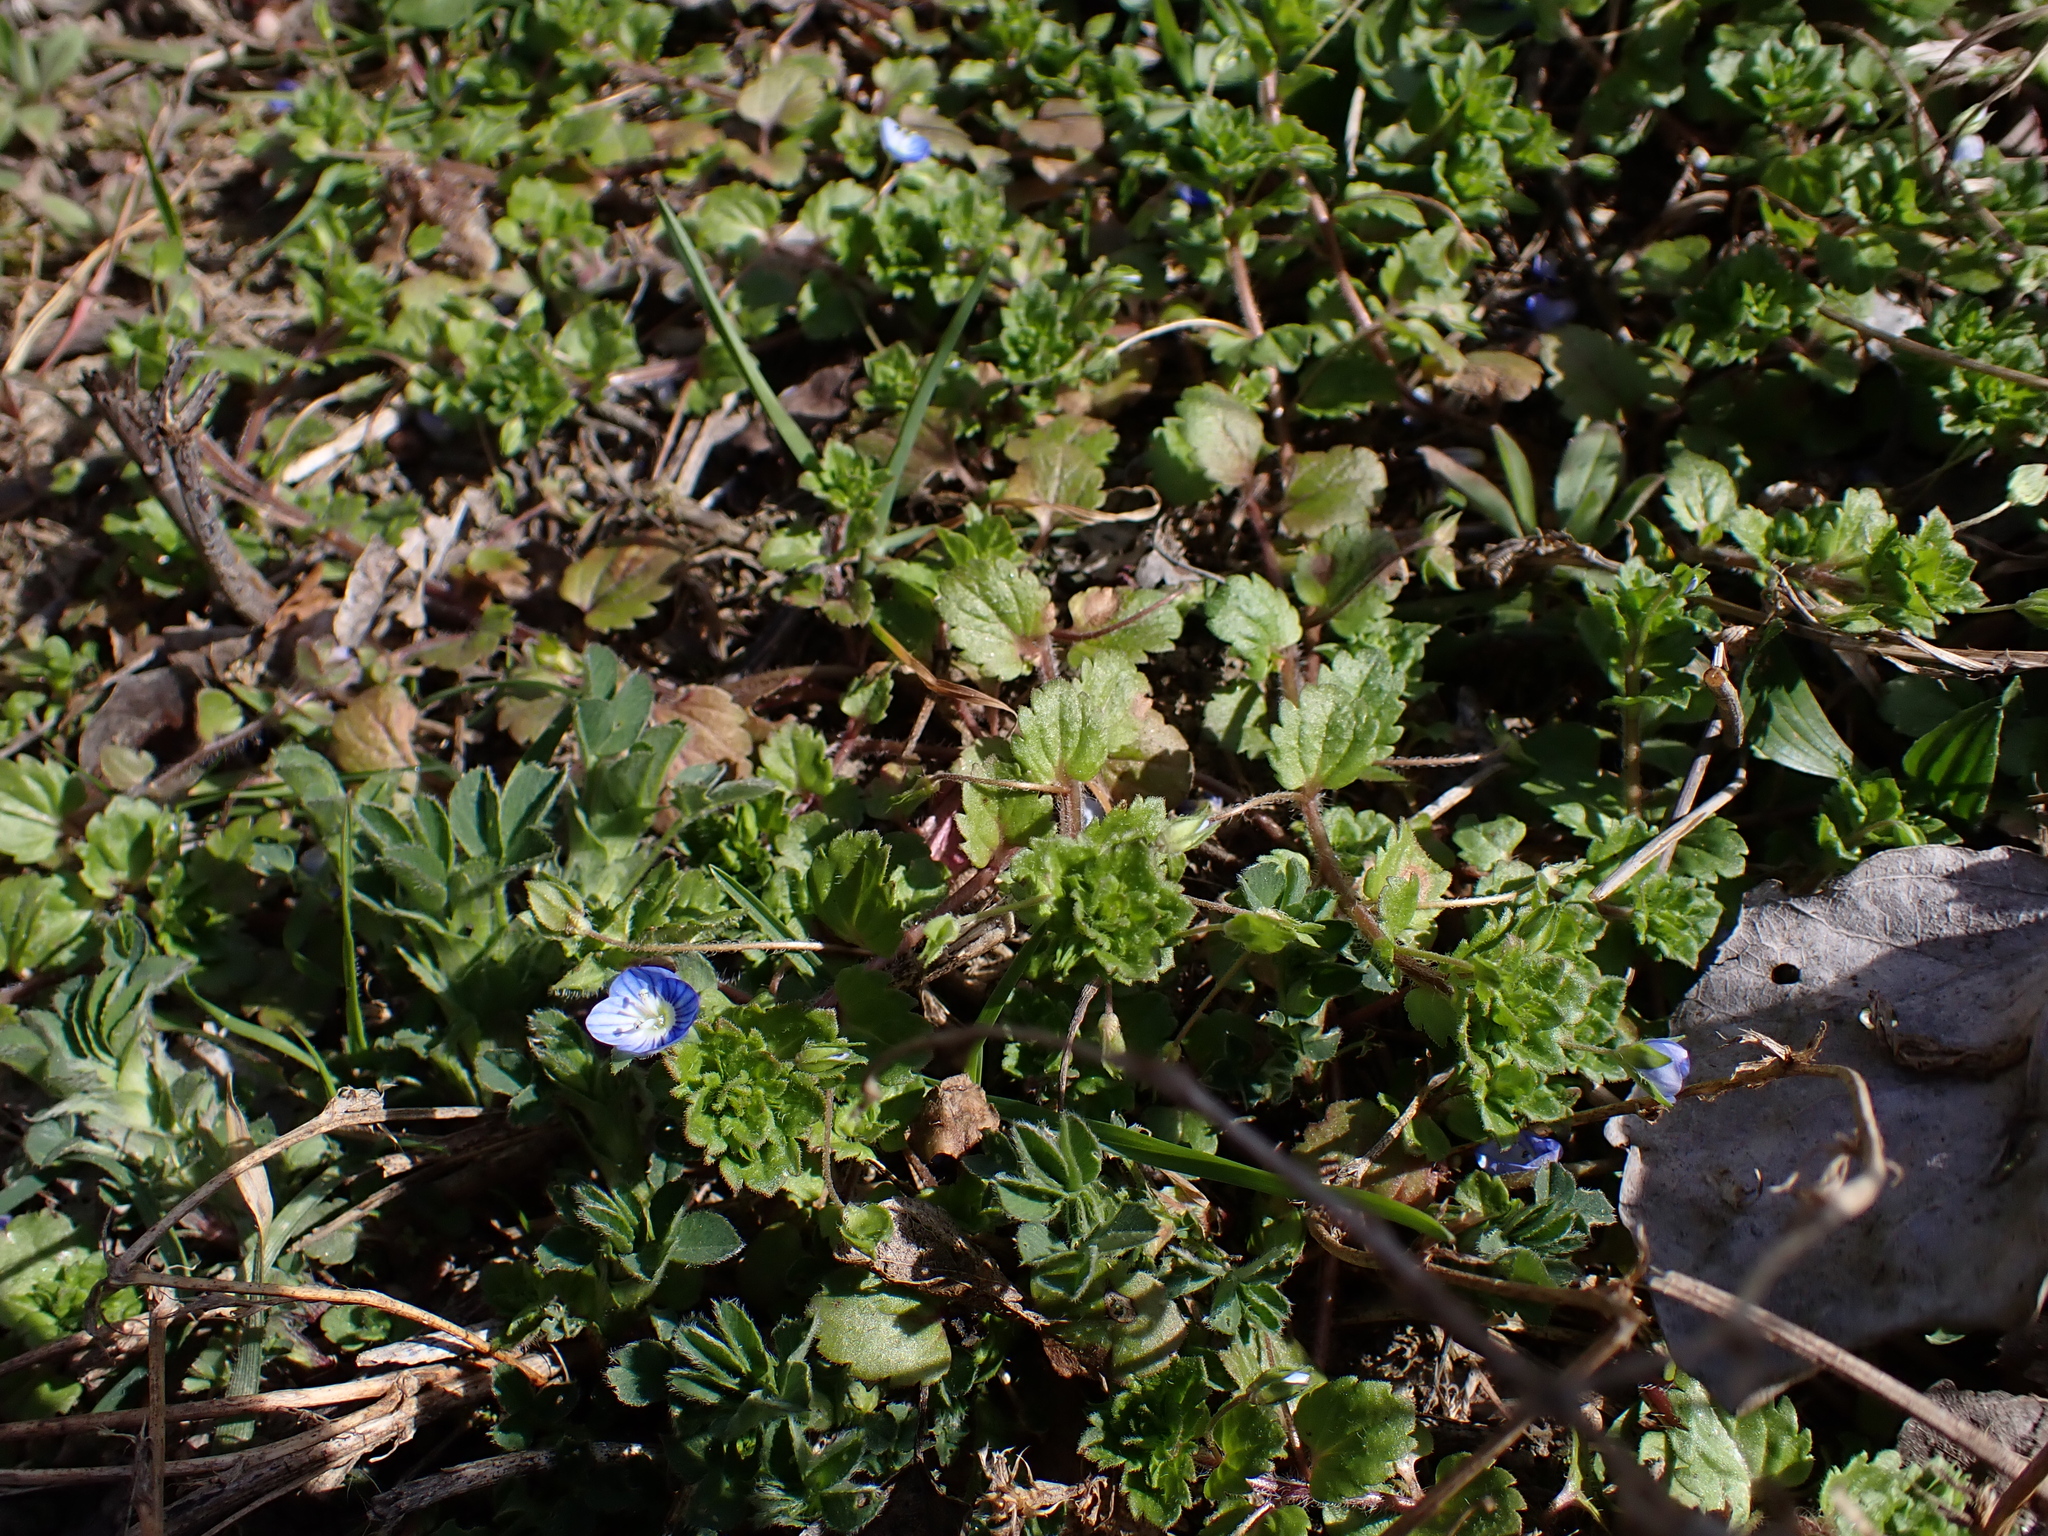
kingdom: Plantae
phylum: Tracheophyta
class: Magnoliopsida
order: Lamiales
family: Plantaginaceae
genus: Veronica
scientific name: Veronica persica
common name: Common field-speedwell
